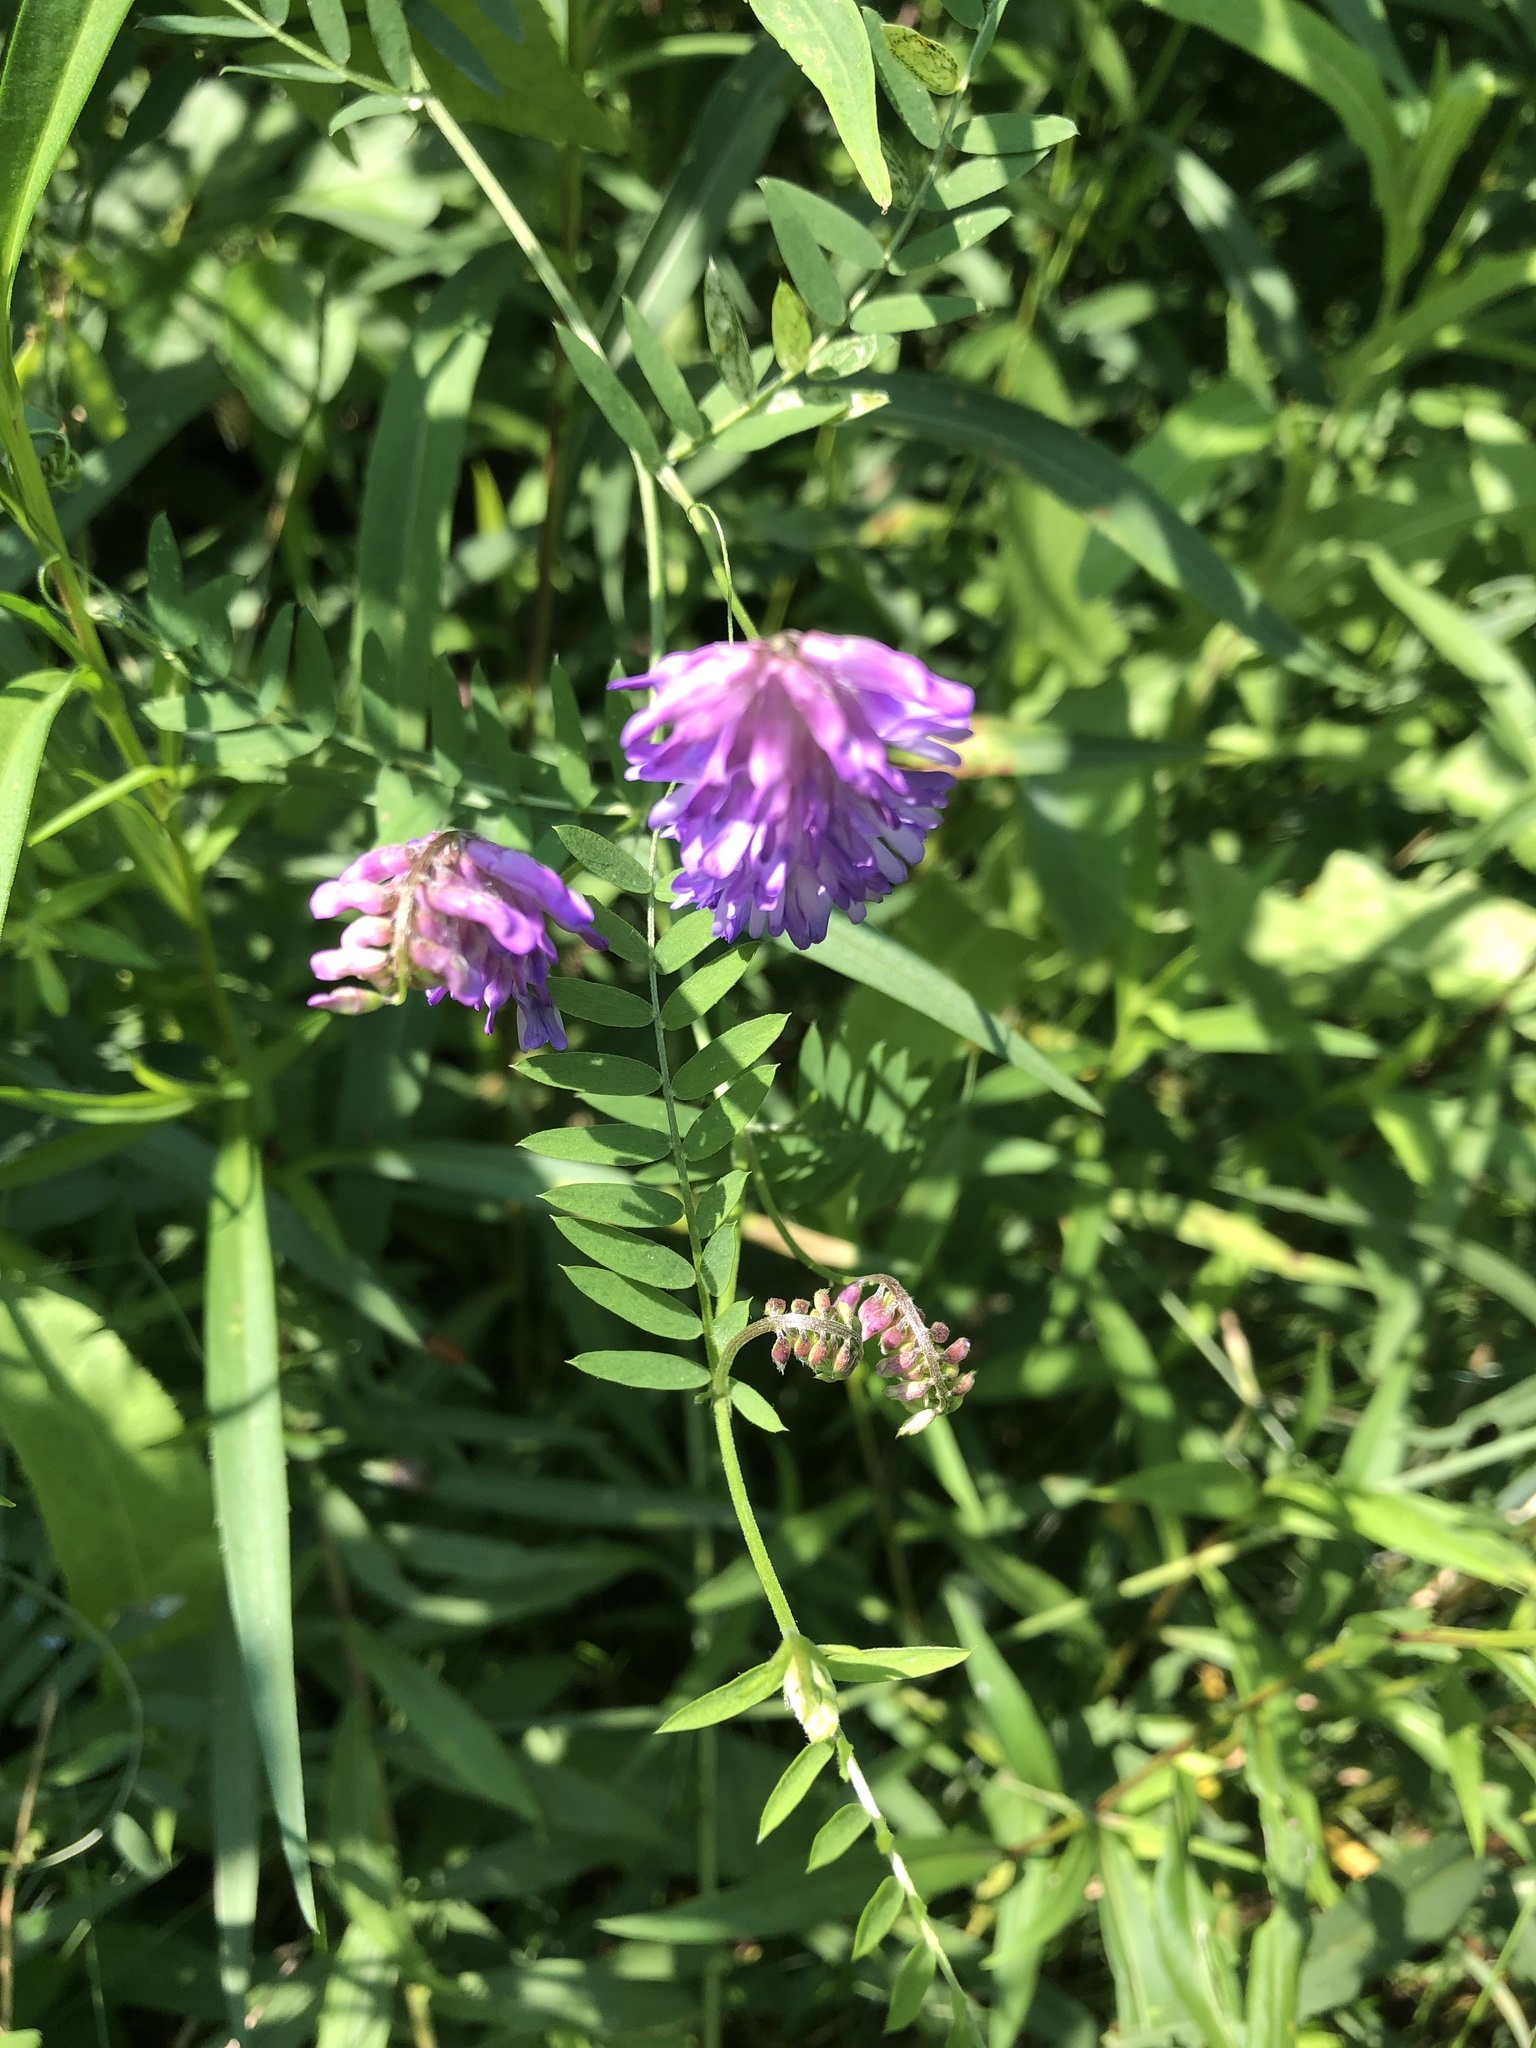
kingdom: Plantae
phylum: Tracheophyta
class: Magnoliopsida
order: Fabales
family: Fabaceae
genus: Vicia
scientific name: Vicia cracca
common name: Bird vetch
